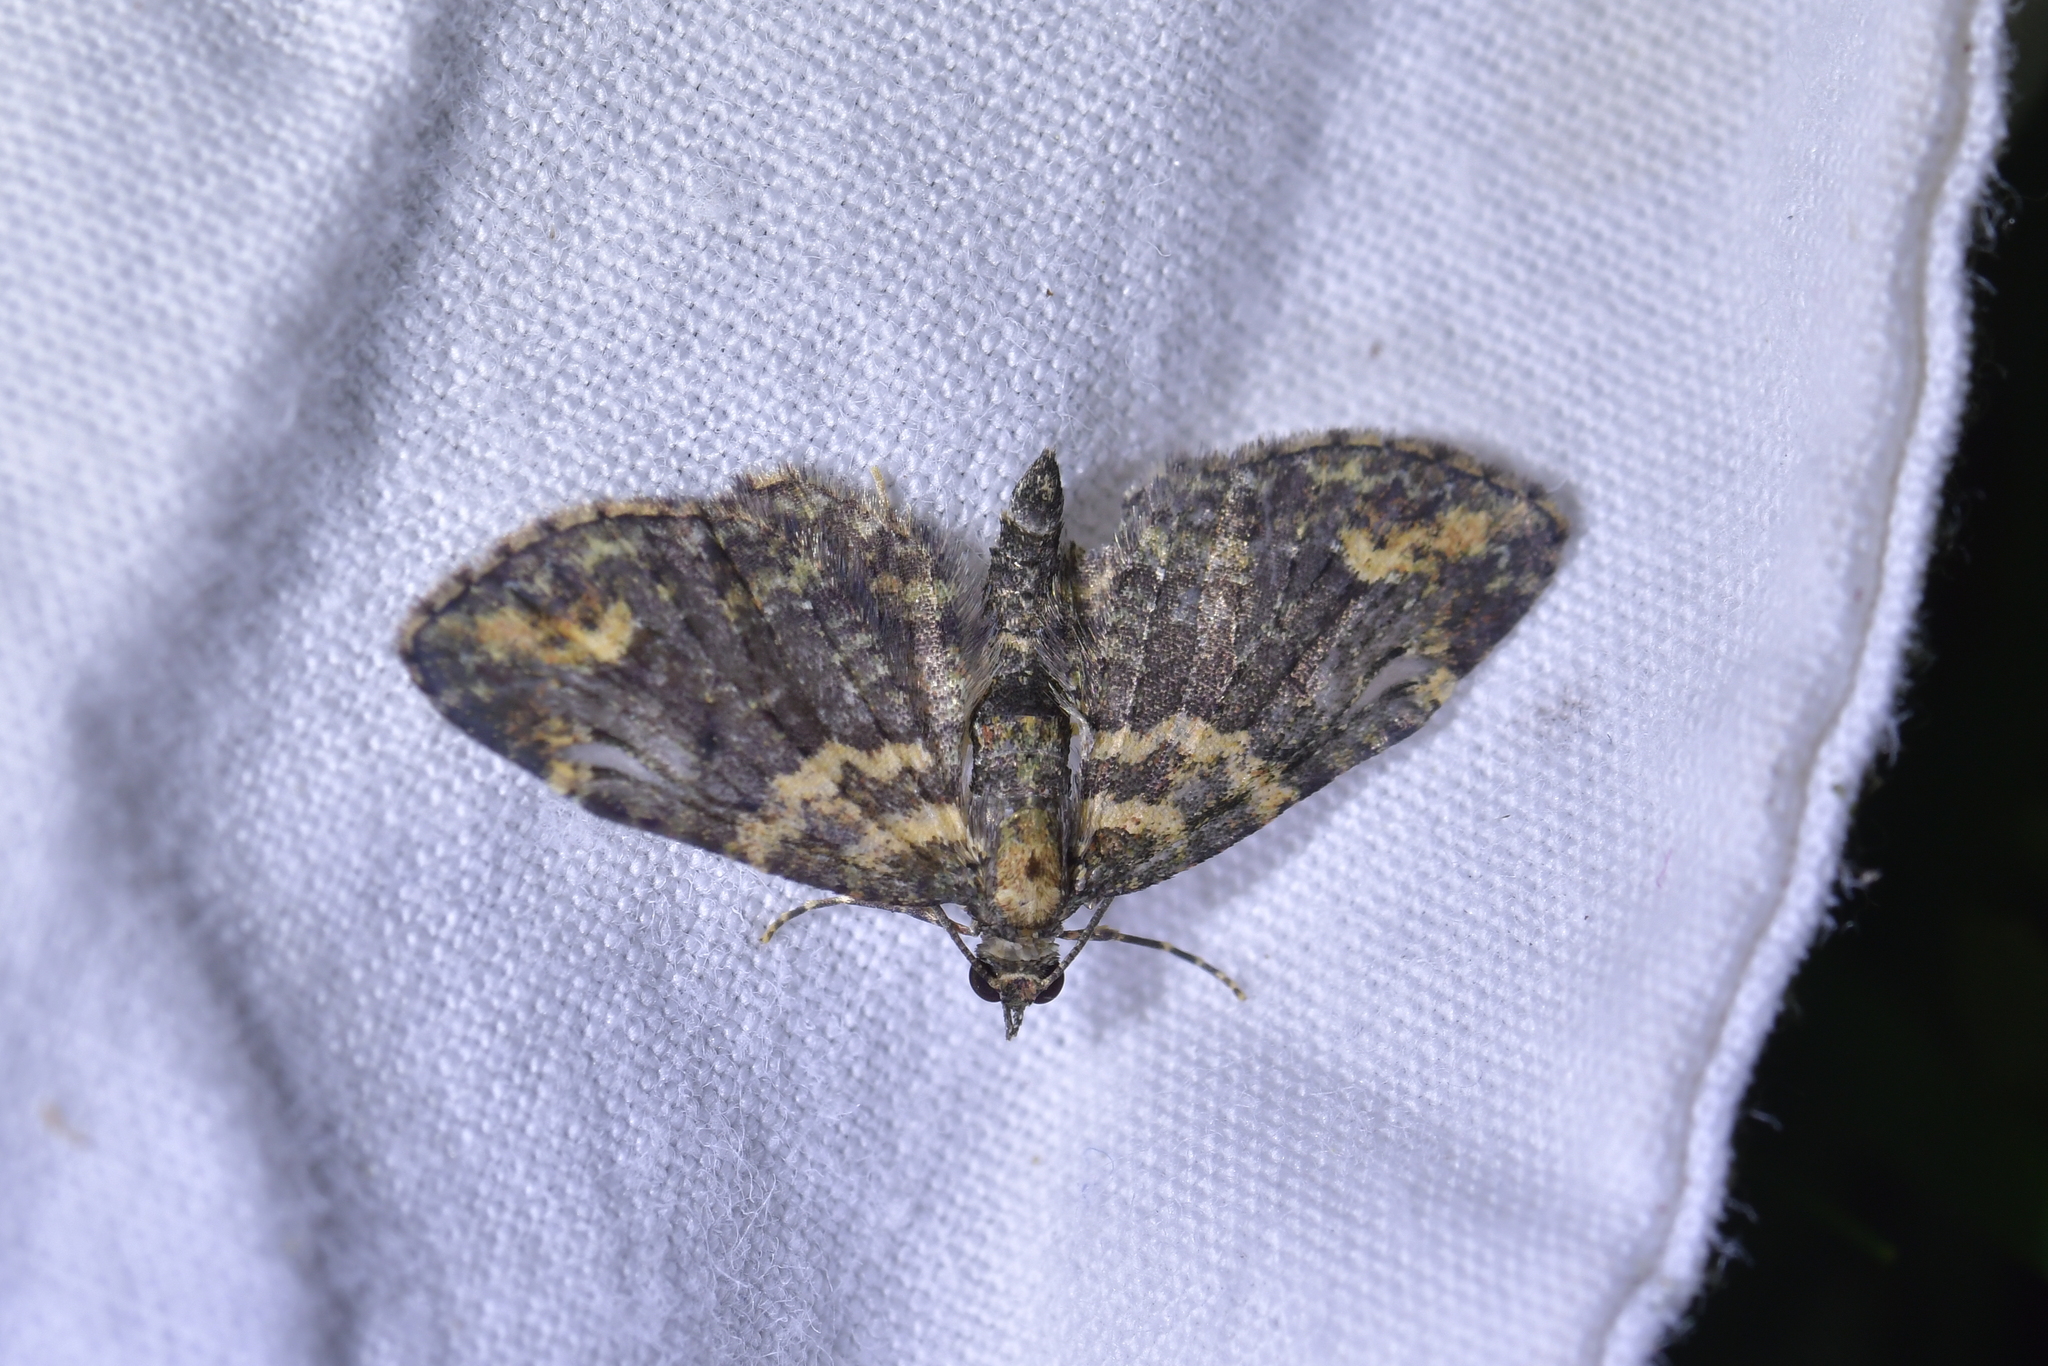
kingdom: Animalia
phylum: Arthropoda
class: Insecta
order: Lepidoptera
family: Geometridae
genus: Pasiphilodes
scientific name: Pasiphilodes testulata
